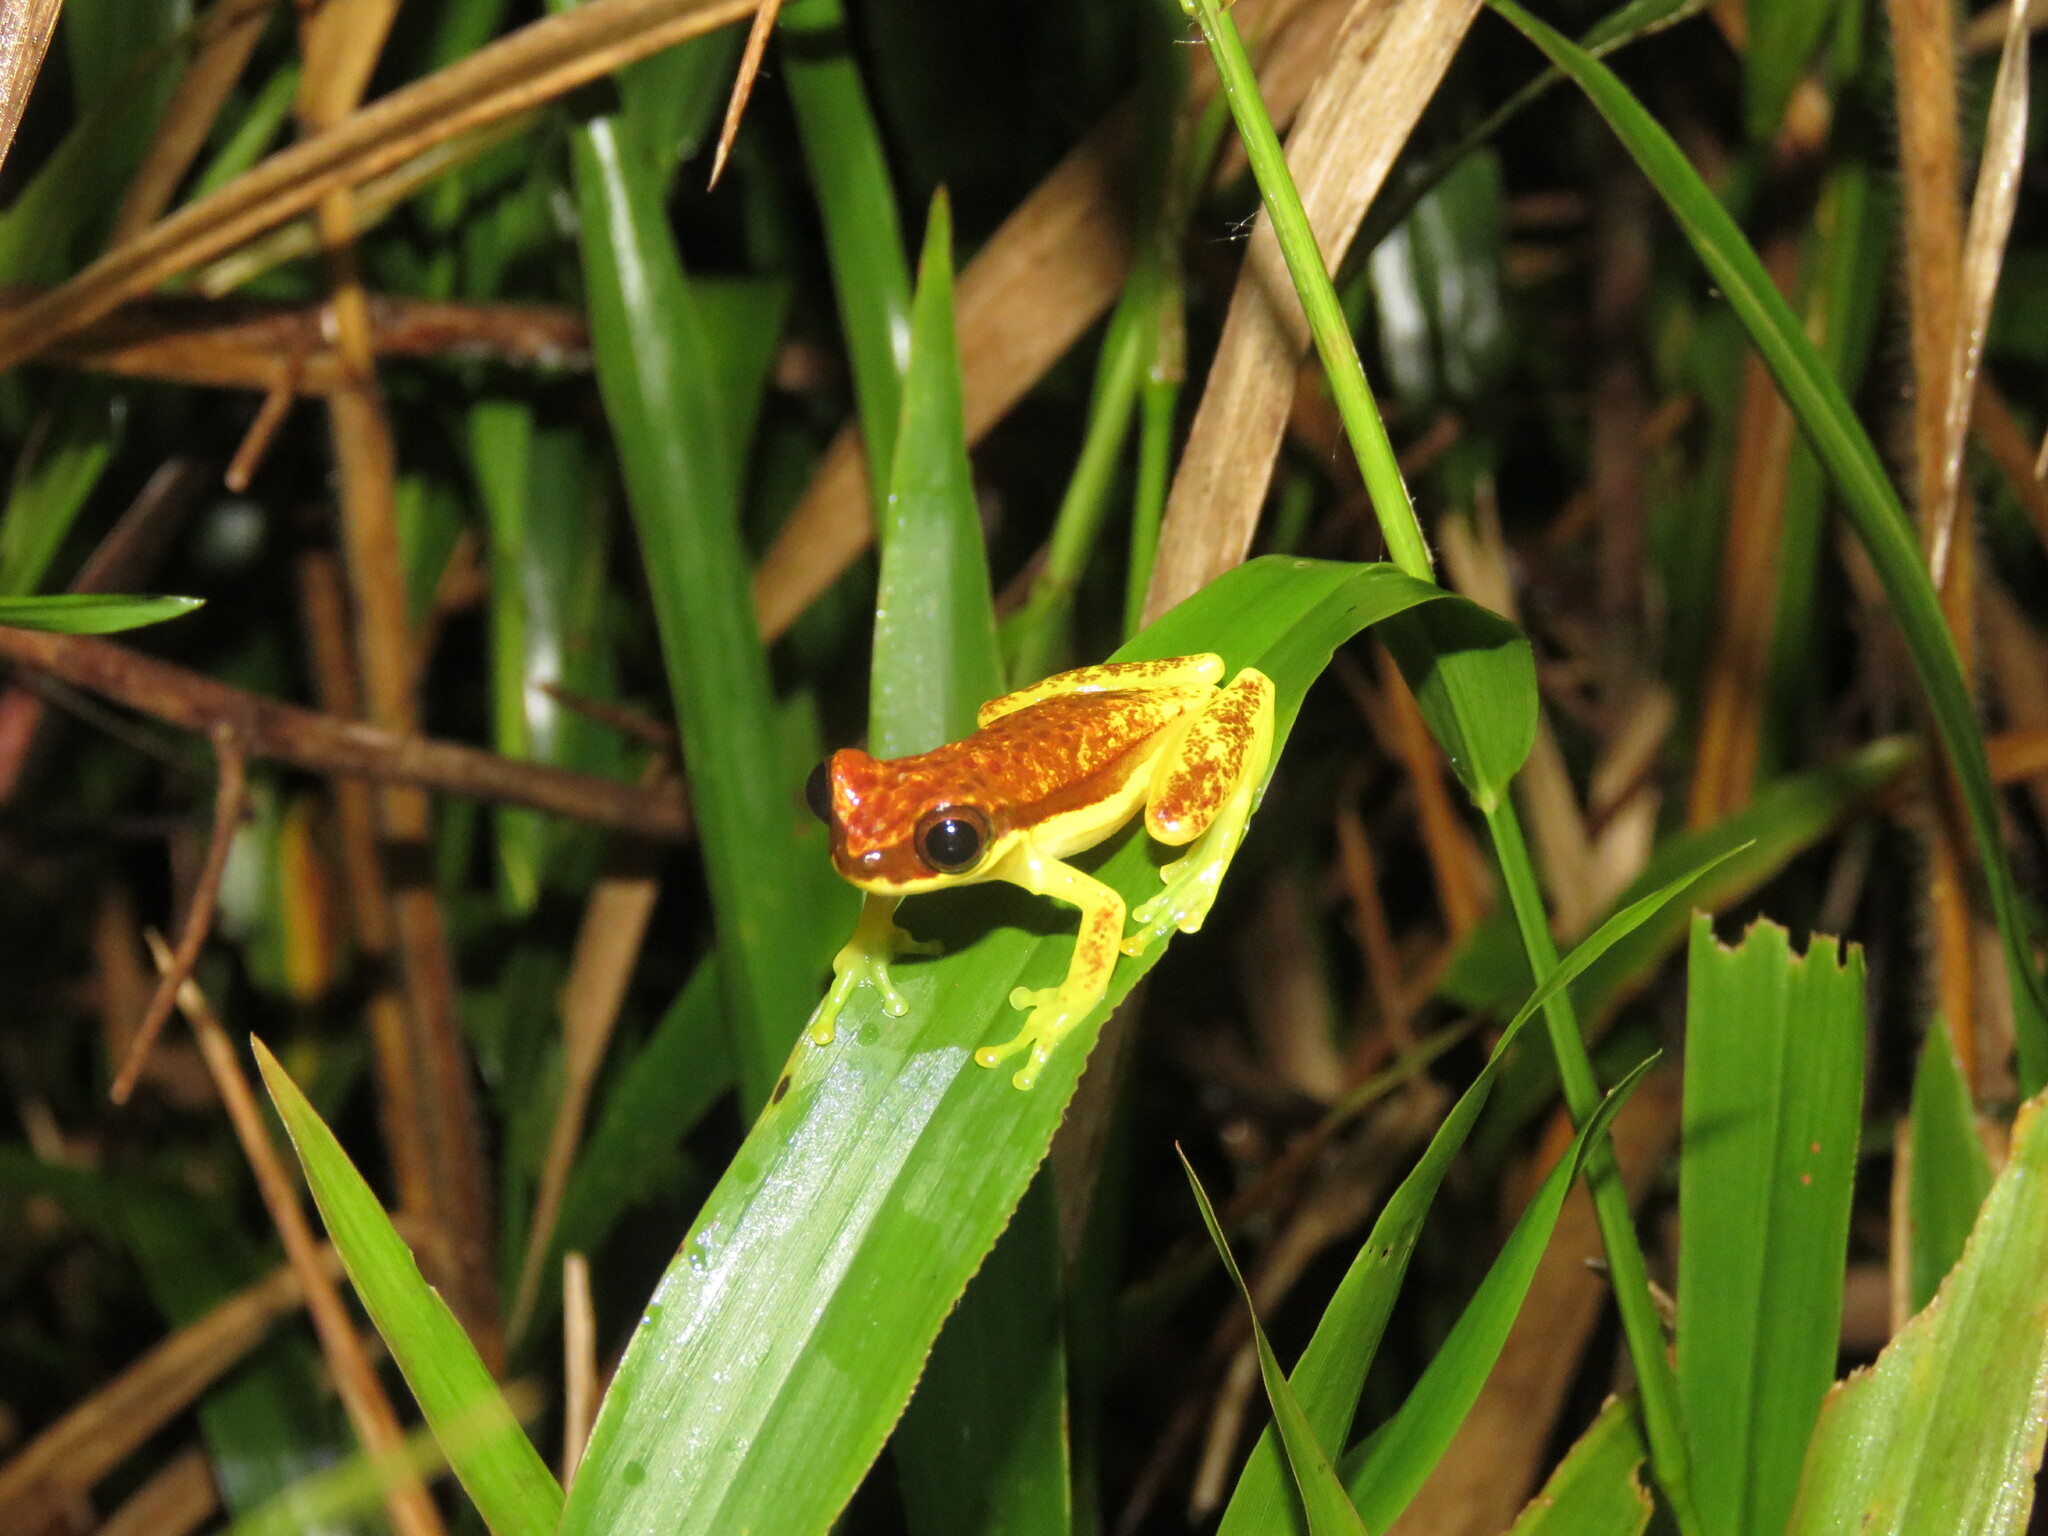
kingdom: Animalia
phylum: Chordata
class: Amphibia
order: Anura
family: Hylidae
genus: Dendropsophus
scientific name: Dendropsophus rhodopeplus
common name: Red-skirted treefrog
